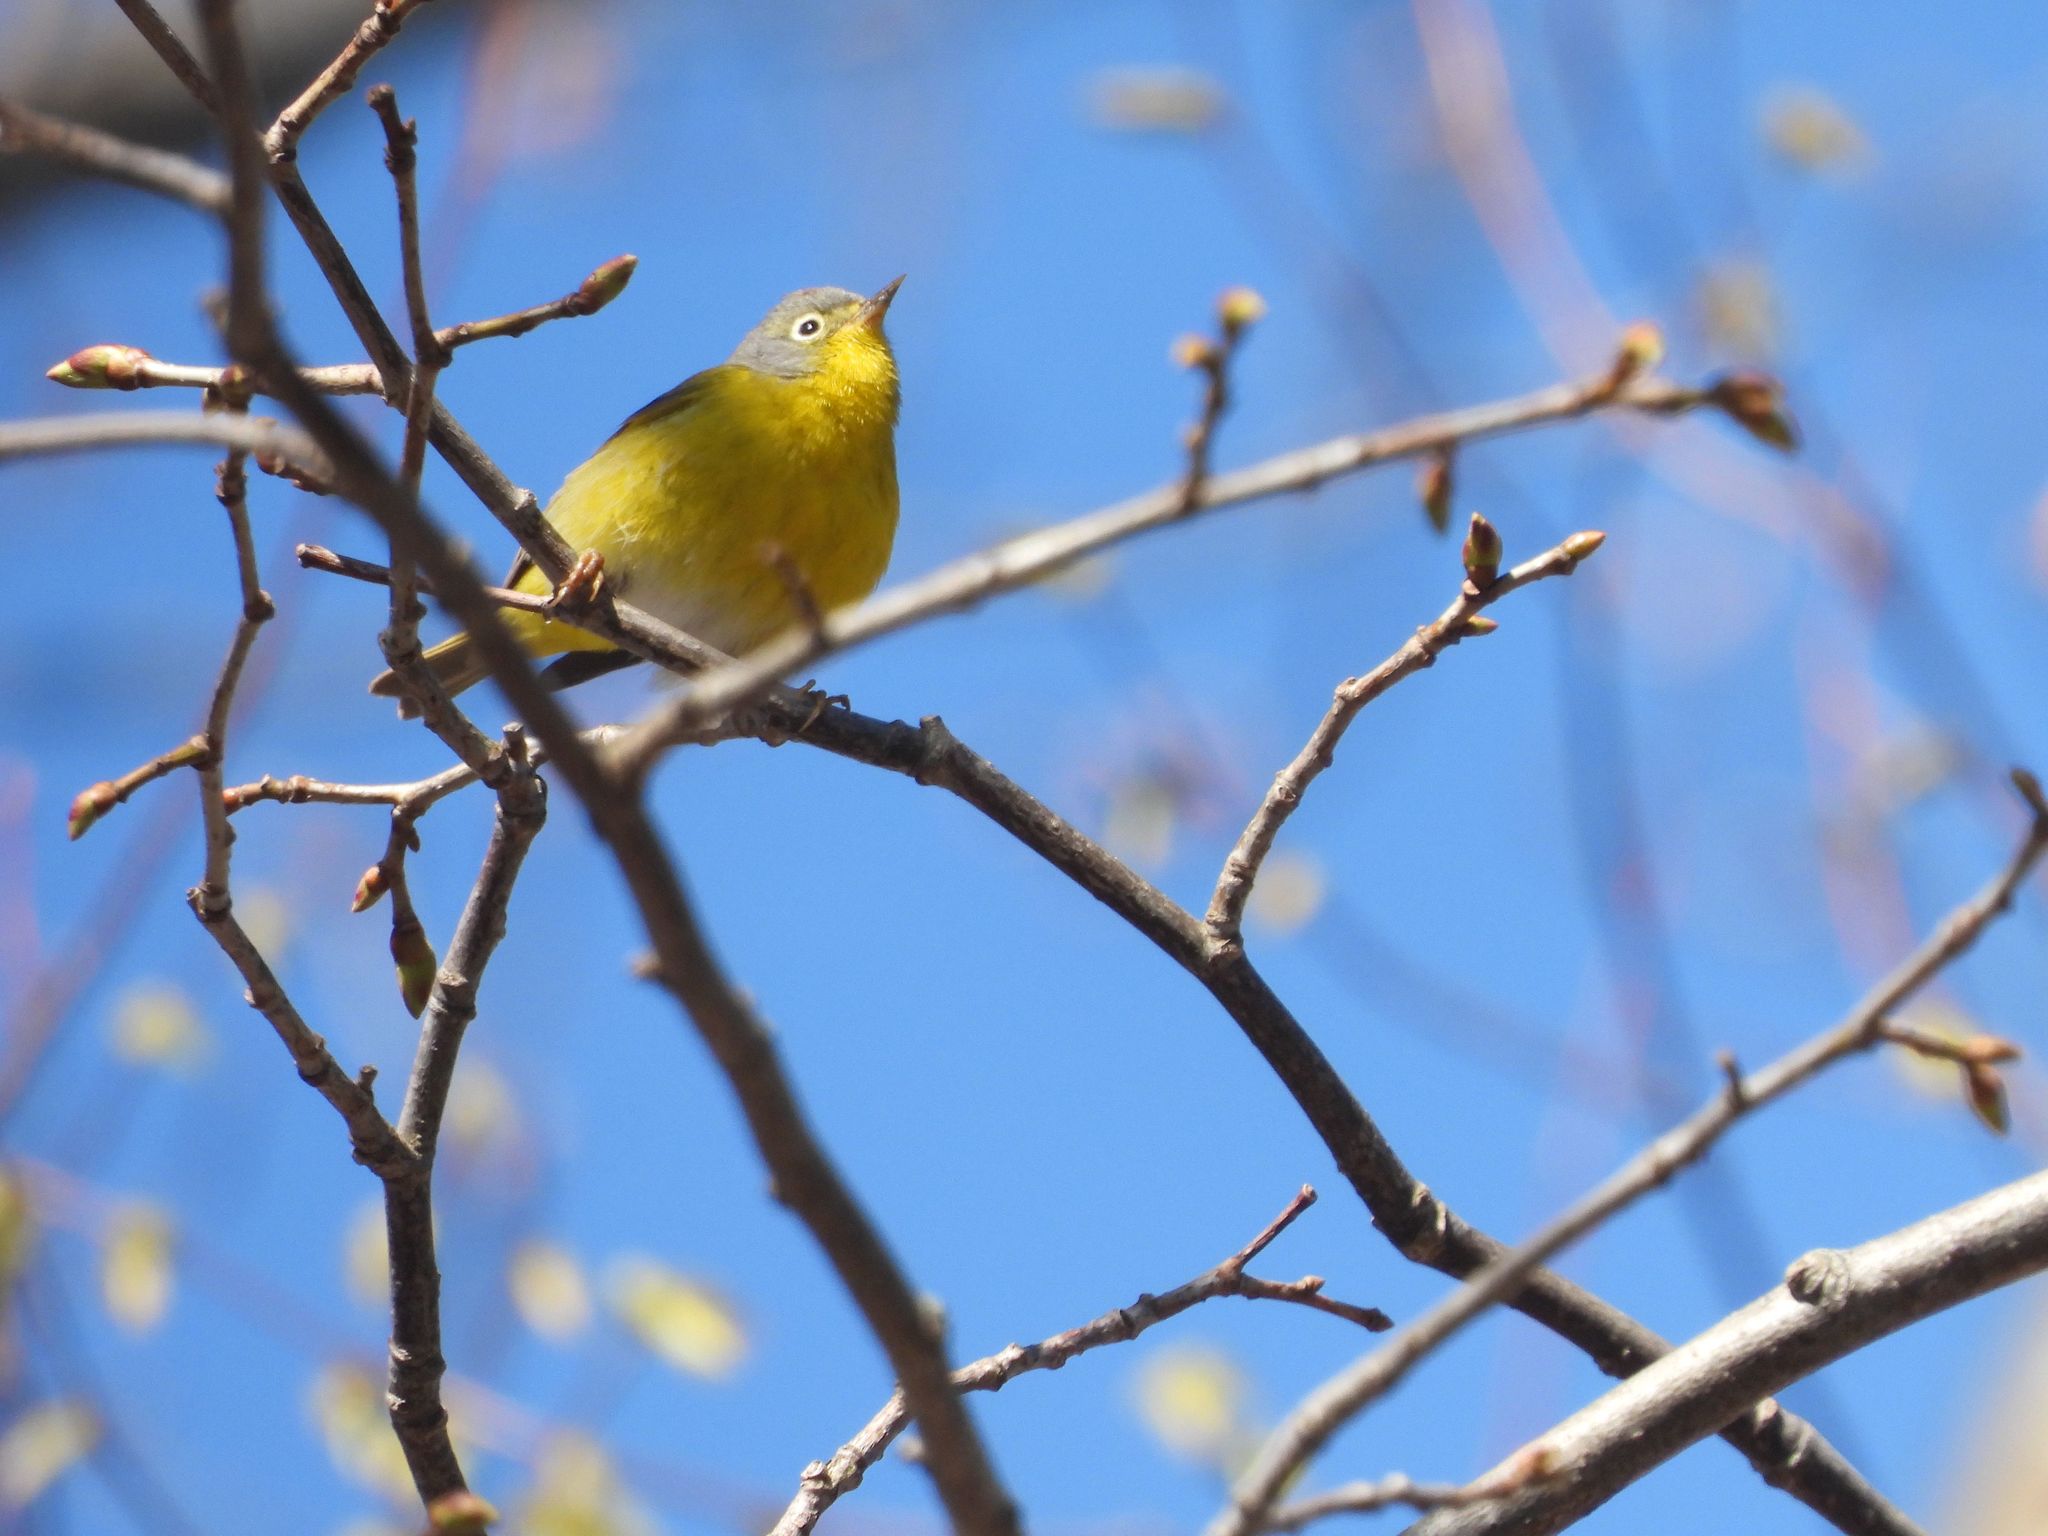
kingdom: Animalia
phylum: Chordata
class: Aves
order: Passeriformes
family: Parulidae
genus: Leiothlypis
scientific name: Leiothlypis ruficapilla
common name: Nashville warbler
